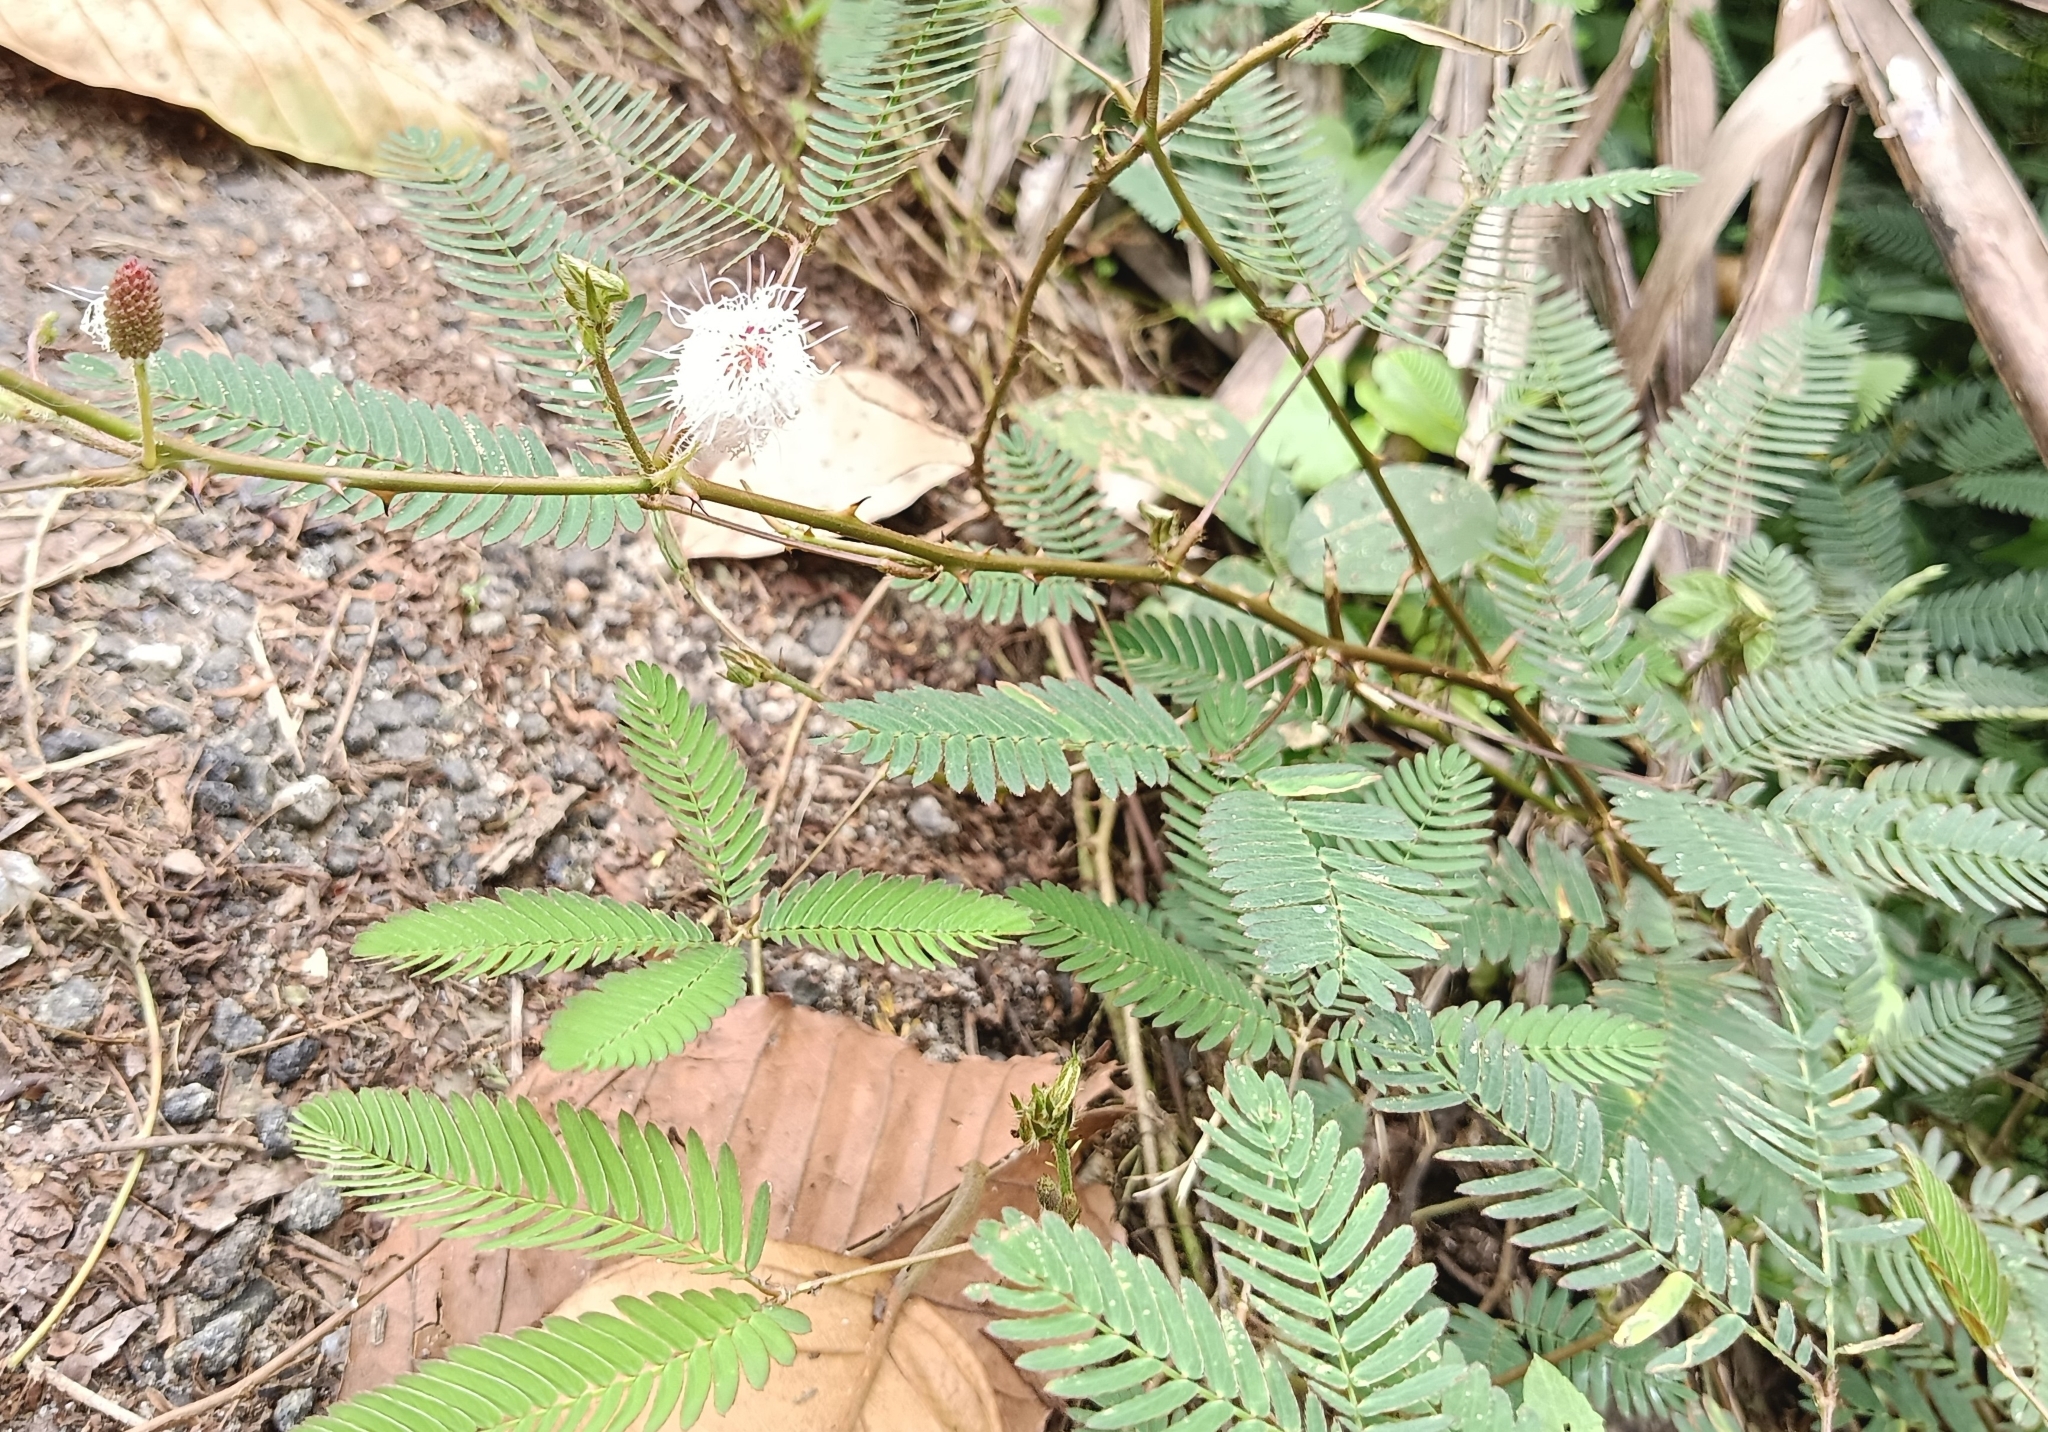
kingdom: Plantae
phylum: Tracheophyta
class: Magnoliopsida
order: Fabales
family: Fabaceae
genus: Mimosa
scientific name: Mimosa pudica
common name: Sensitive plant
